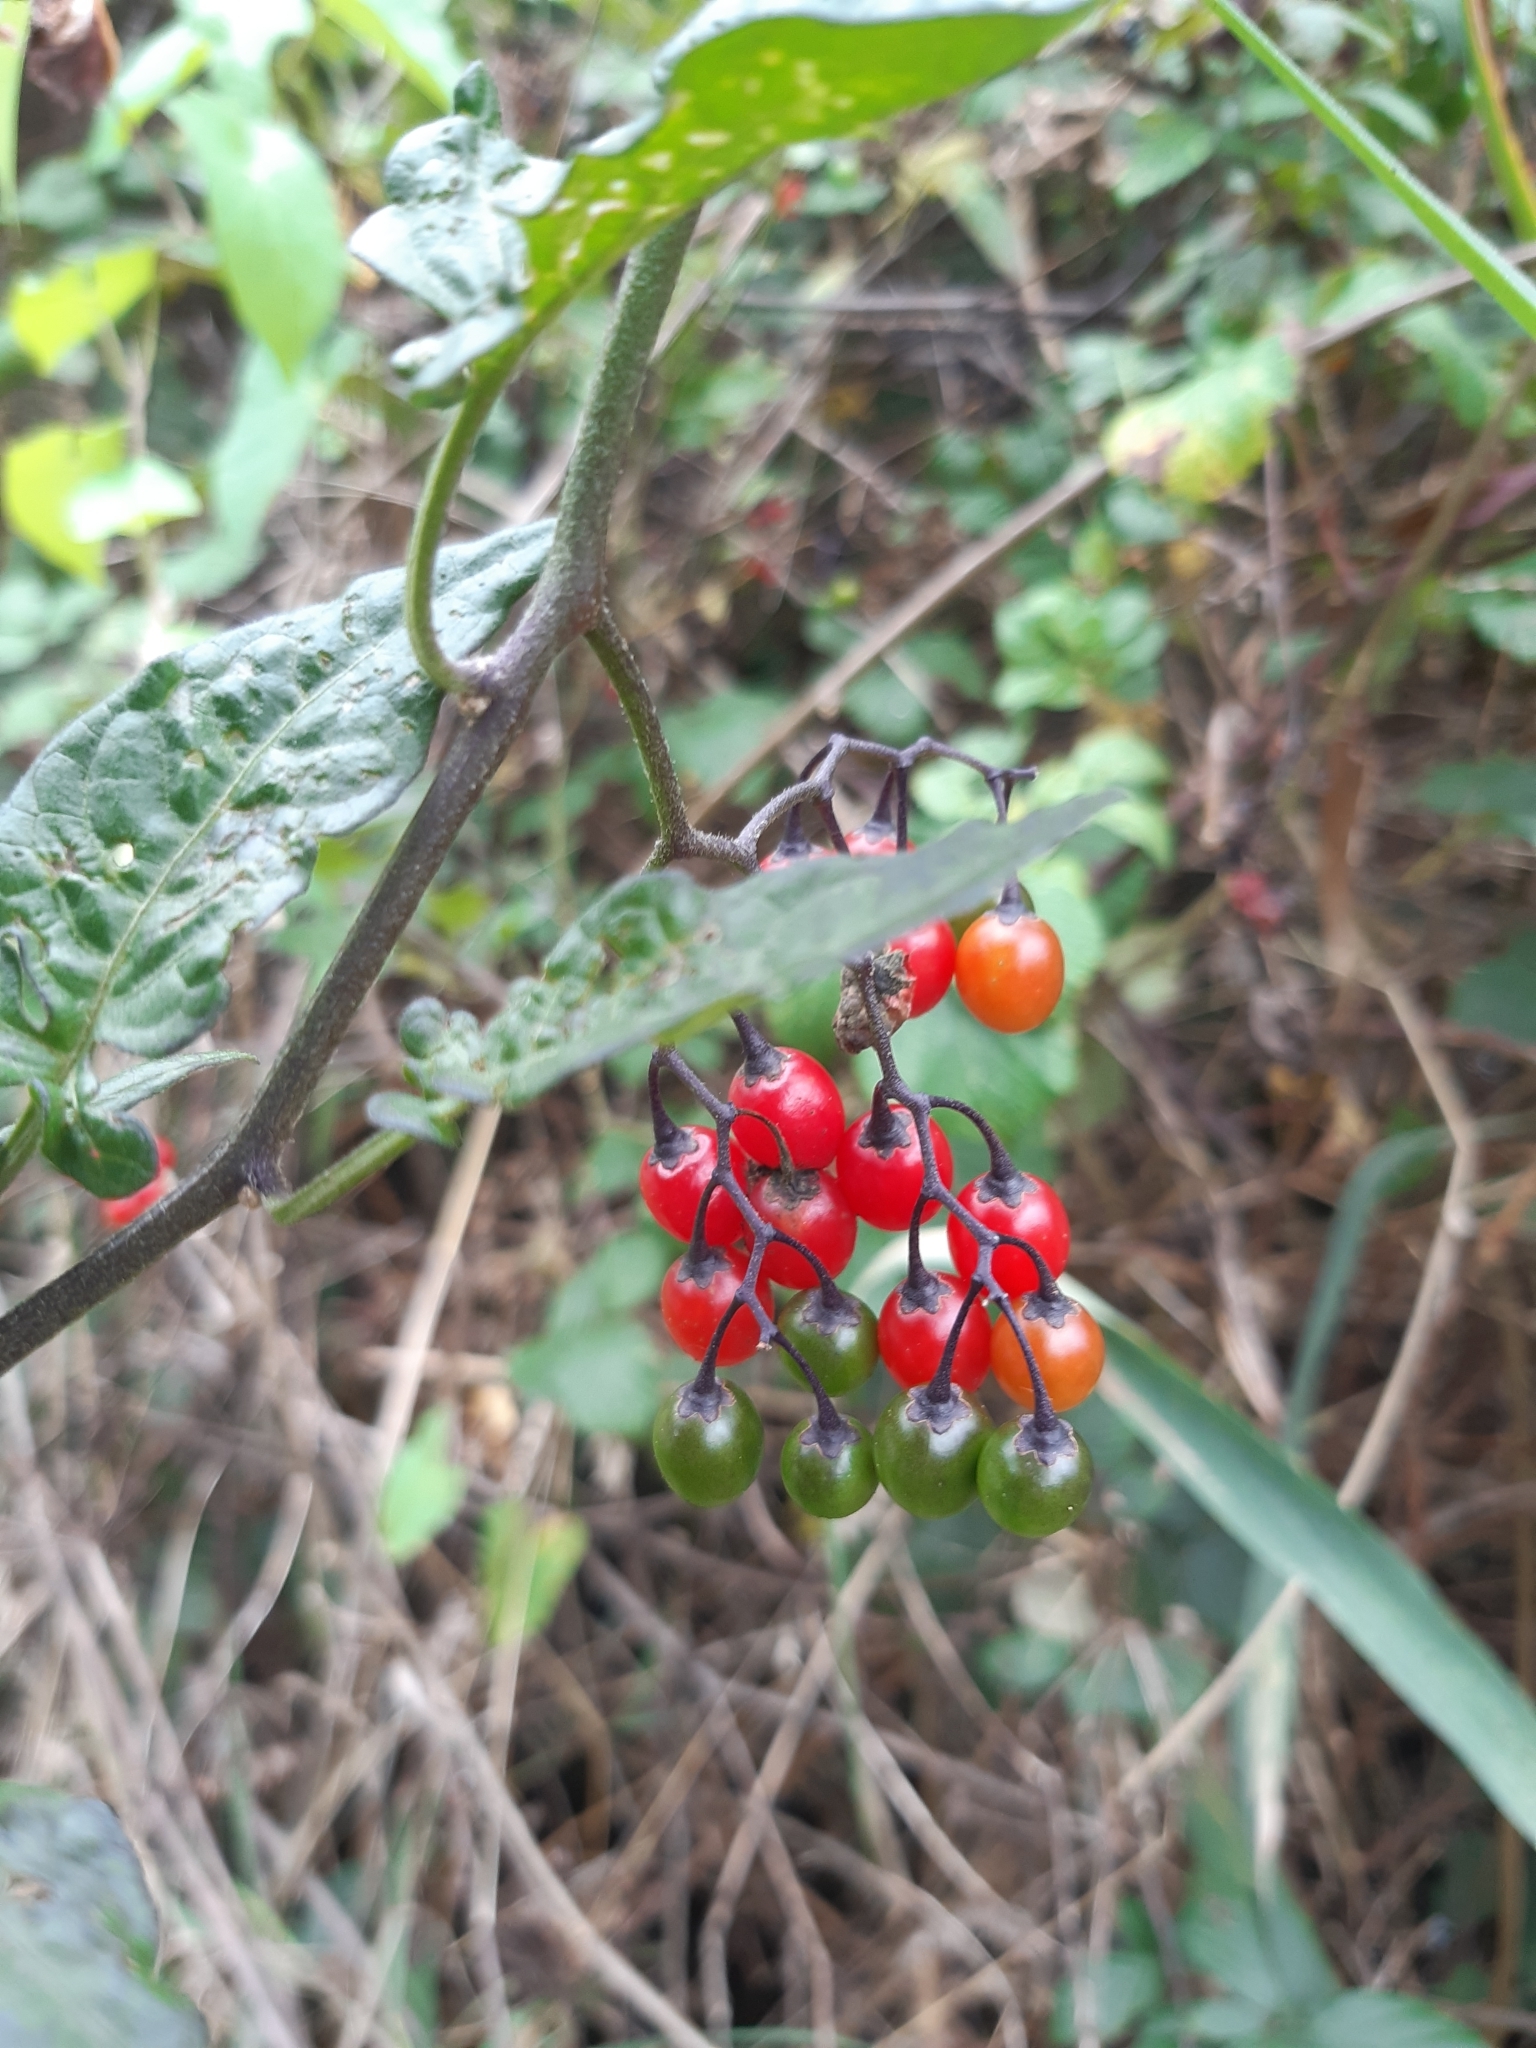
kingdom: Plantae
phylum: Tracheophyta
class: Magnoliopsida
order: Solanales
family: Solanaceae
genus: Solanum
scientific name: Solanum dulcamara
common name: Climbing nightshade
